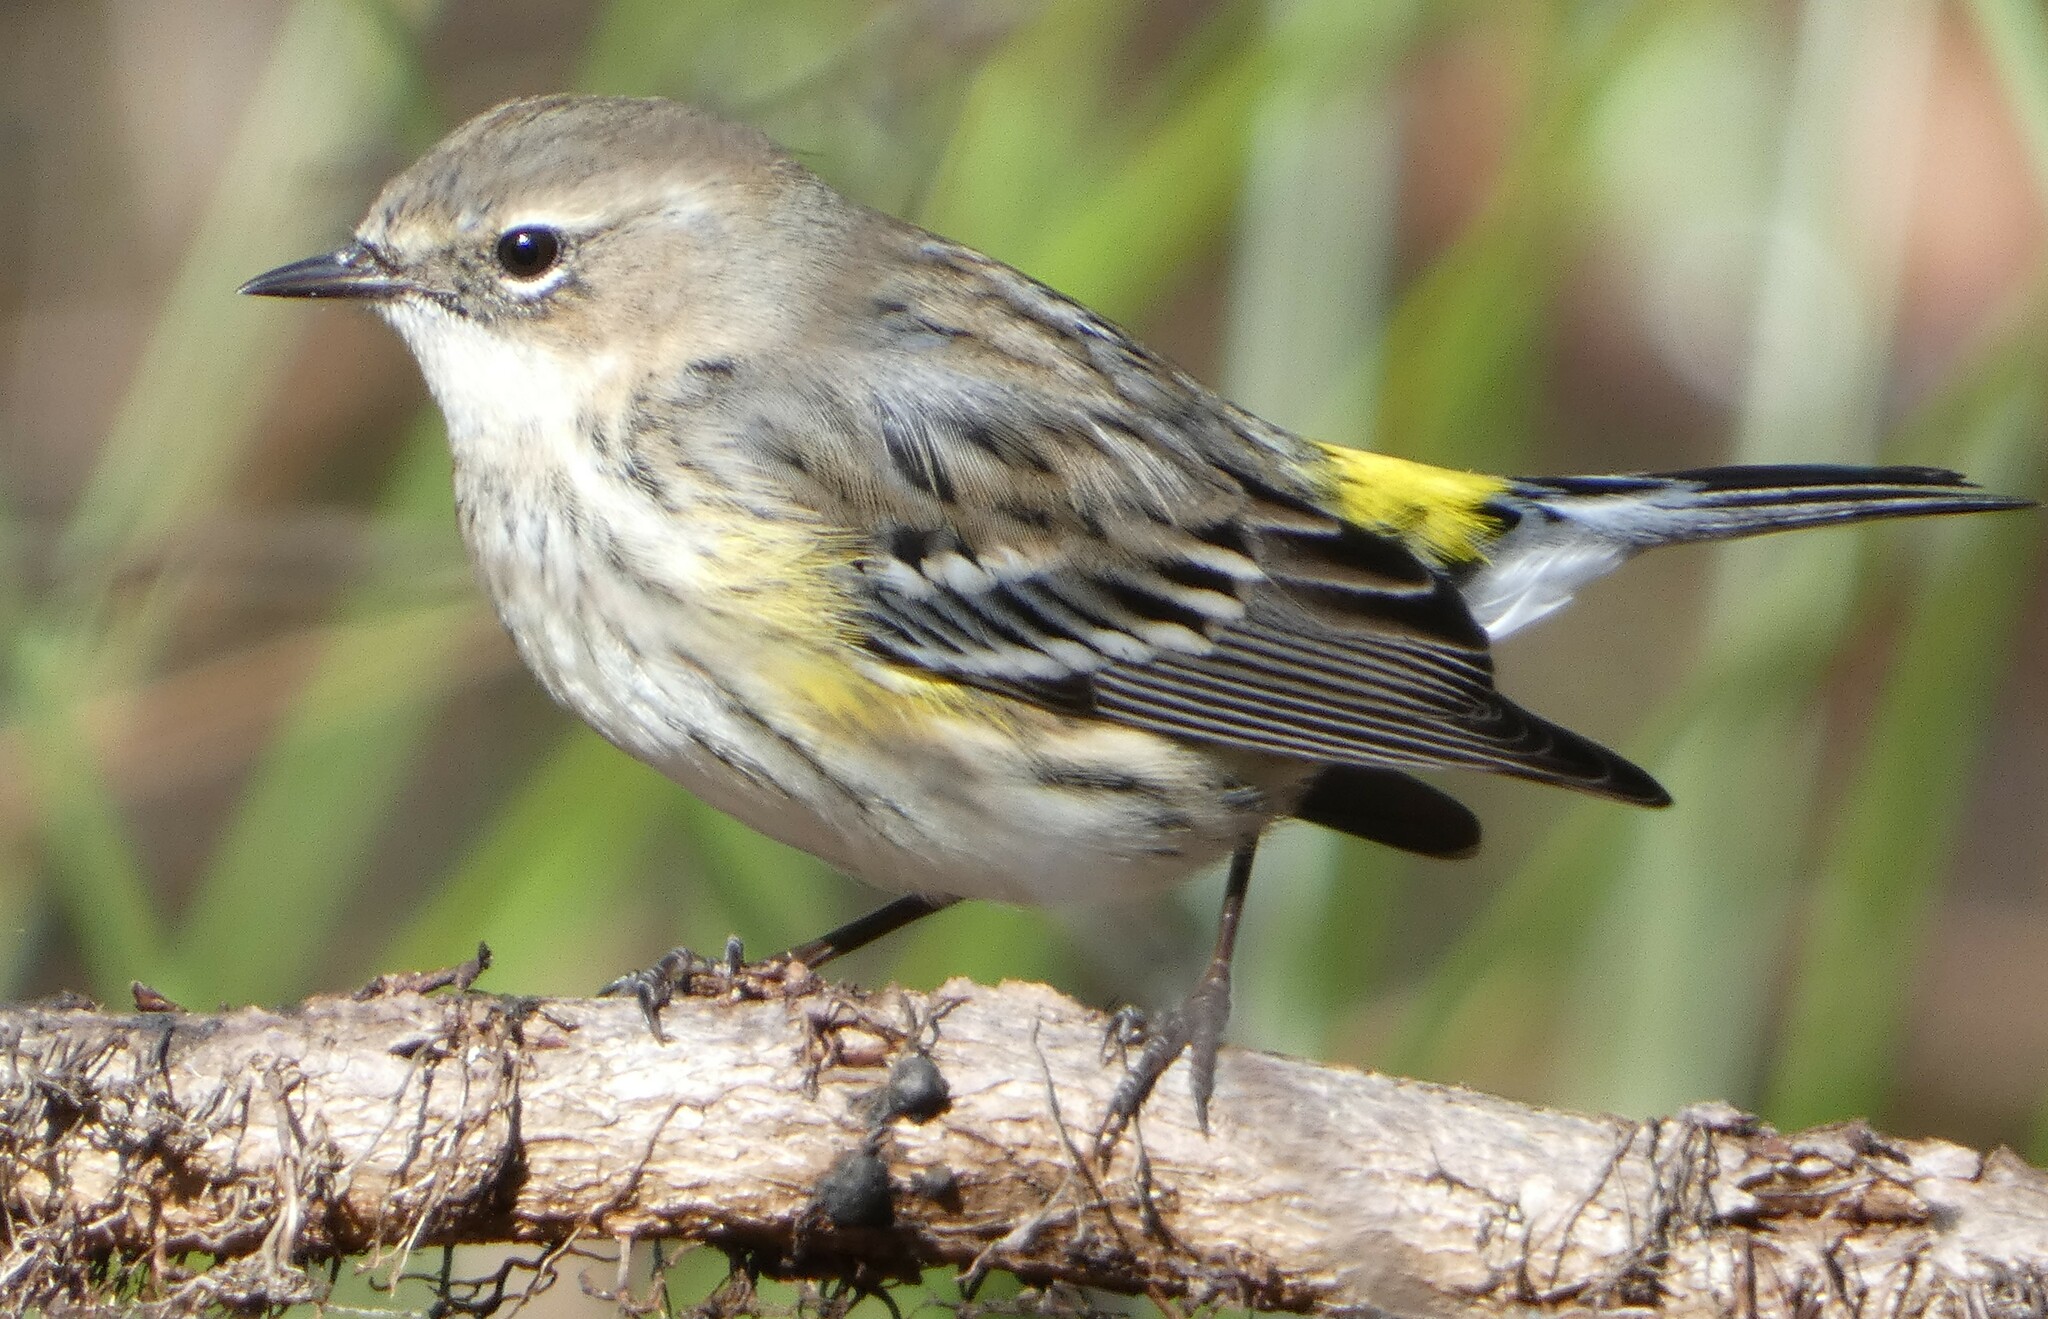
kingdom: Animalia
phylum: Chordata
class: Aves
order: Passeriformes
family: Parulidae
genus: Setophaga
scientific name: Setophaga coronata
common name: Myrtle warbler
